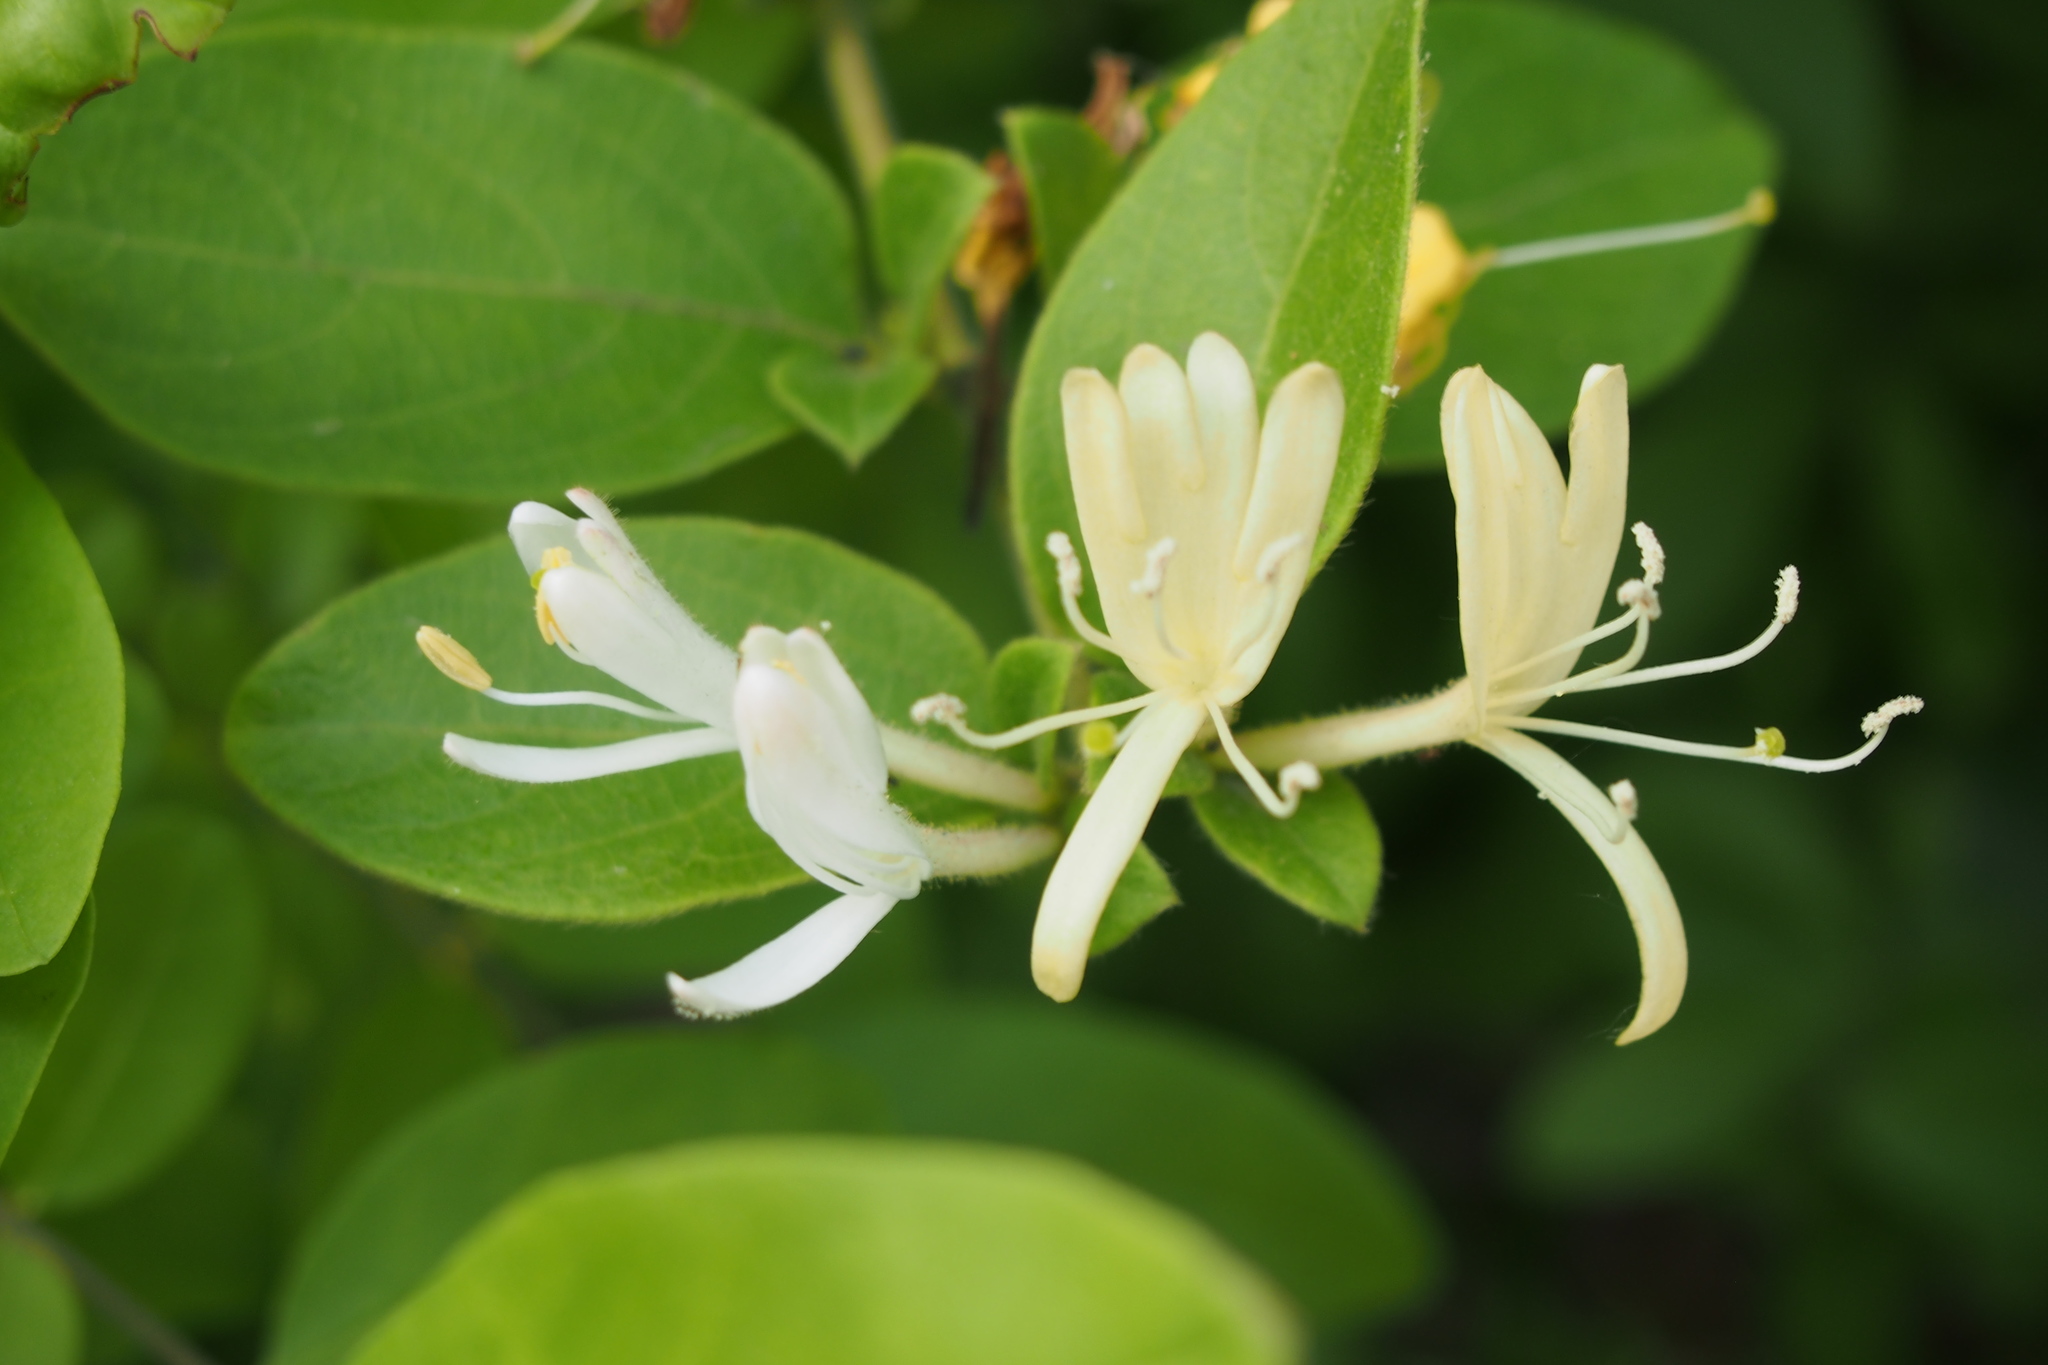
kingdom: Plantae
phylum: Tracheophyta
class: Magnoliopsida
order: Dipsacales
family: Caprifoliaceae
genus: Lonicera
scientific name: Lonicera japonica
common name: Japanese honeysuckle
